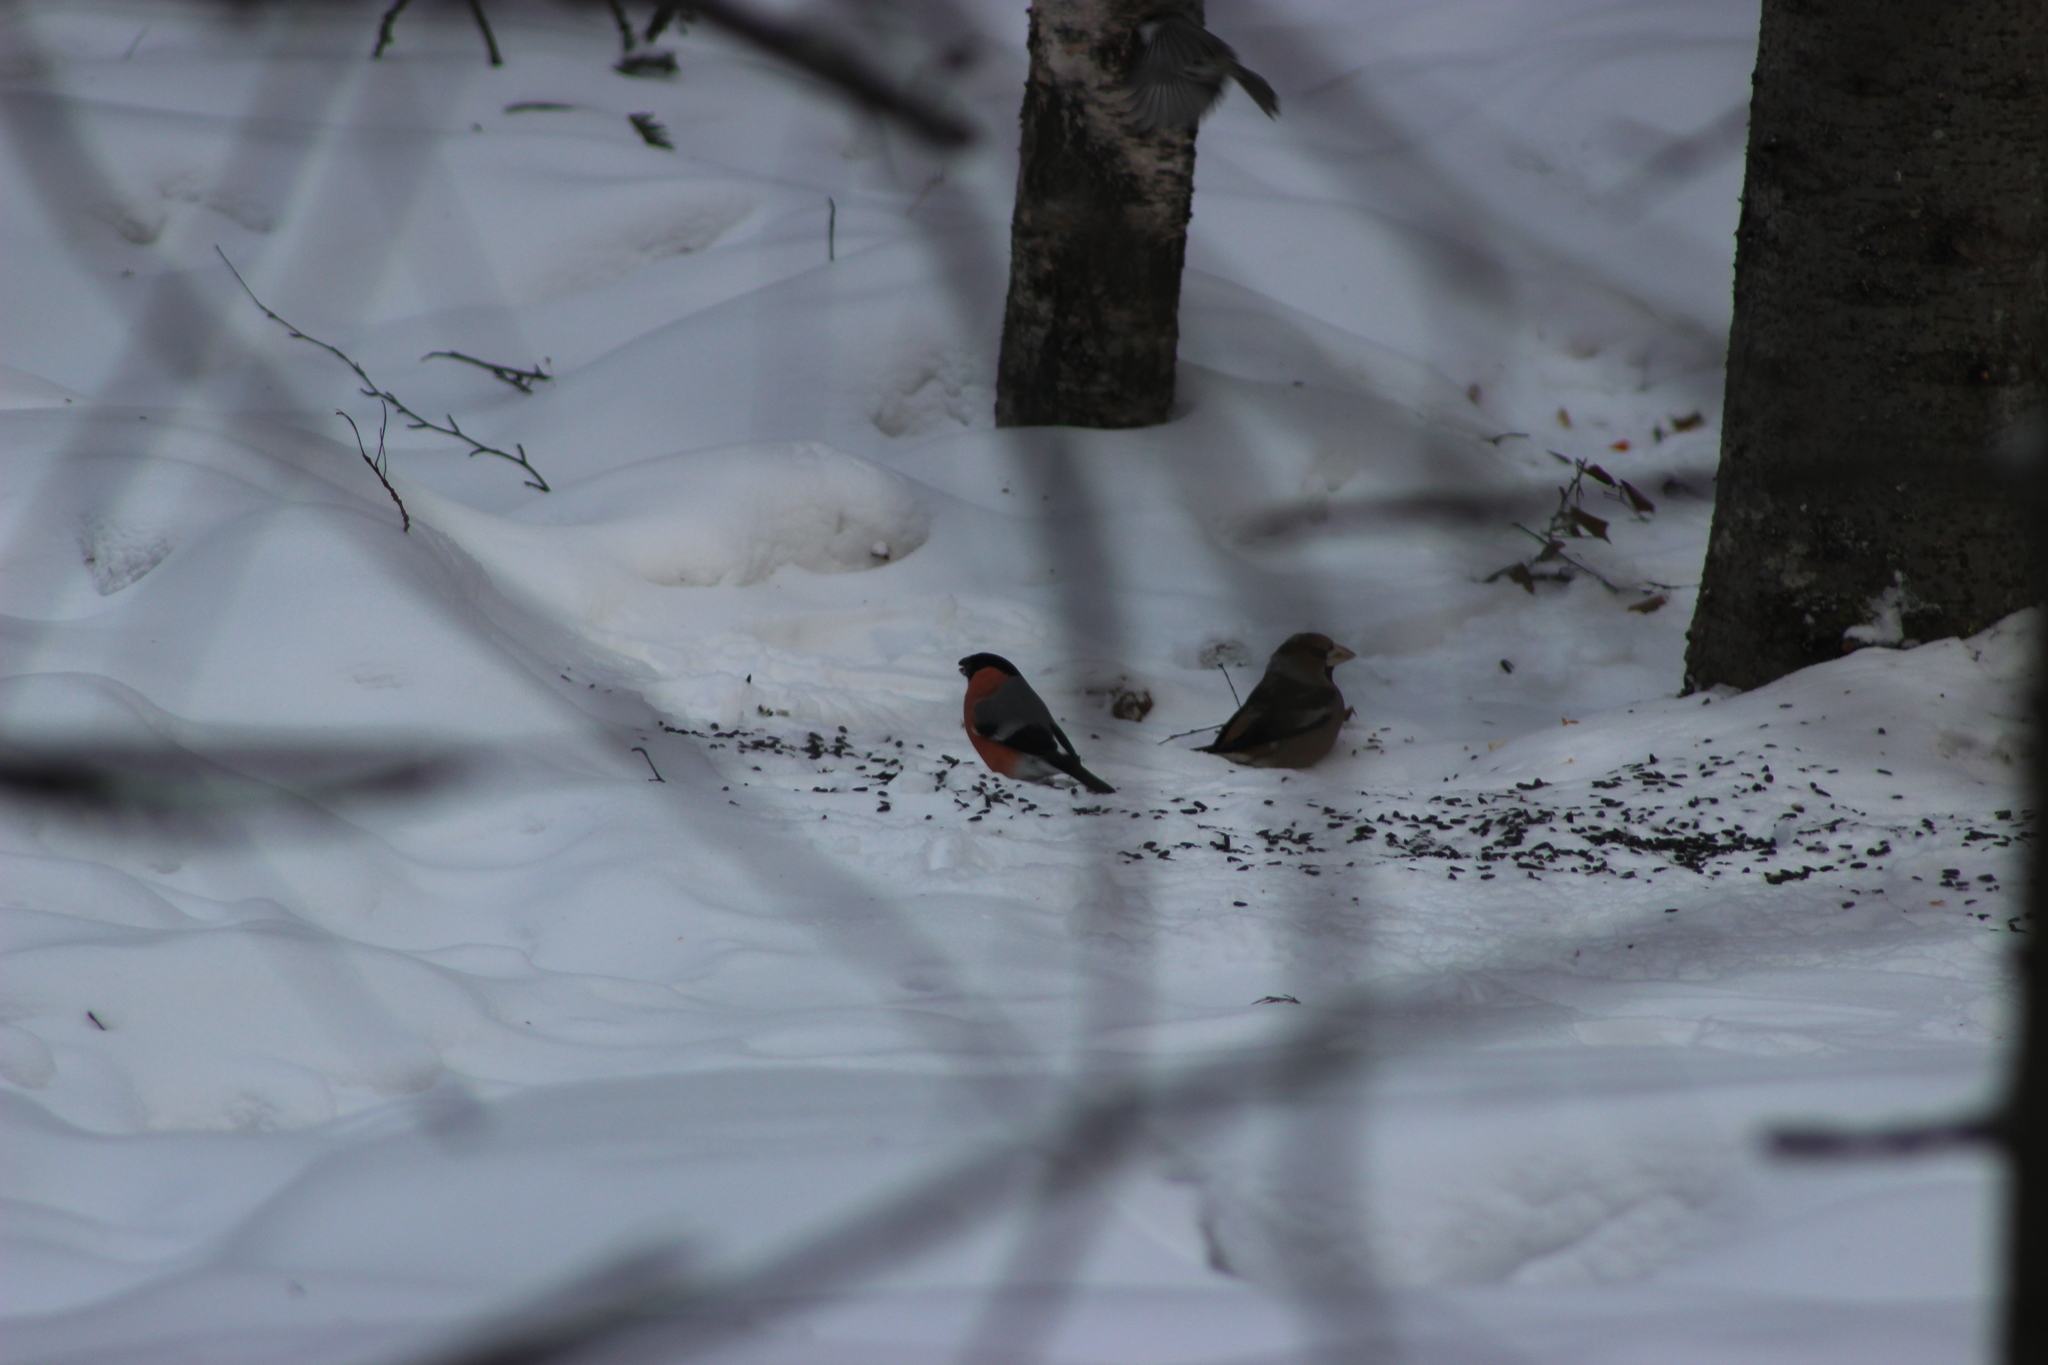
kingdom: Animalia
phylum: Chordata
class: Aves
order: Passeriformes
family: Fringillidae
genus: Pyrrhula
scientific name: Pyrrhula pyrrhula
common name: Eurasian bullfinch
